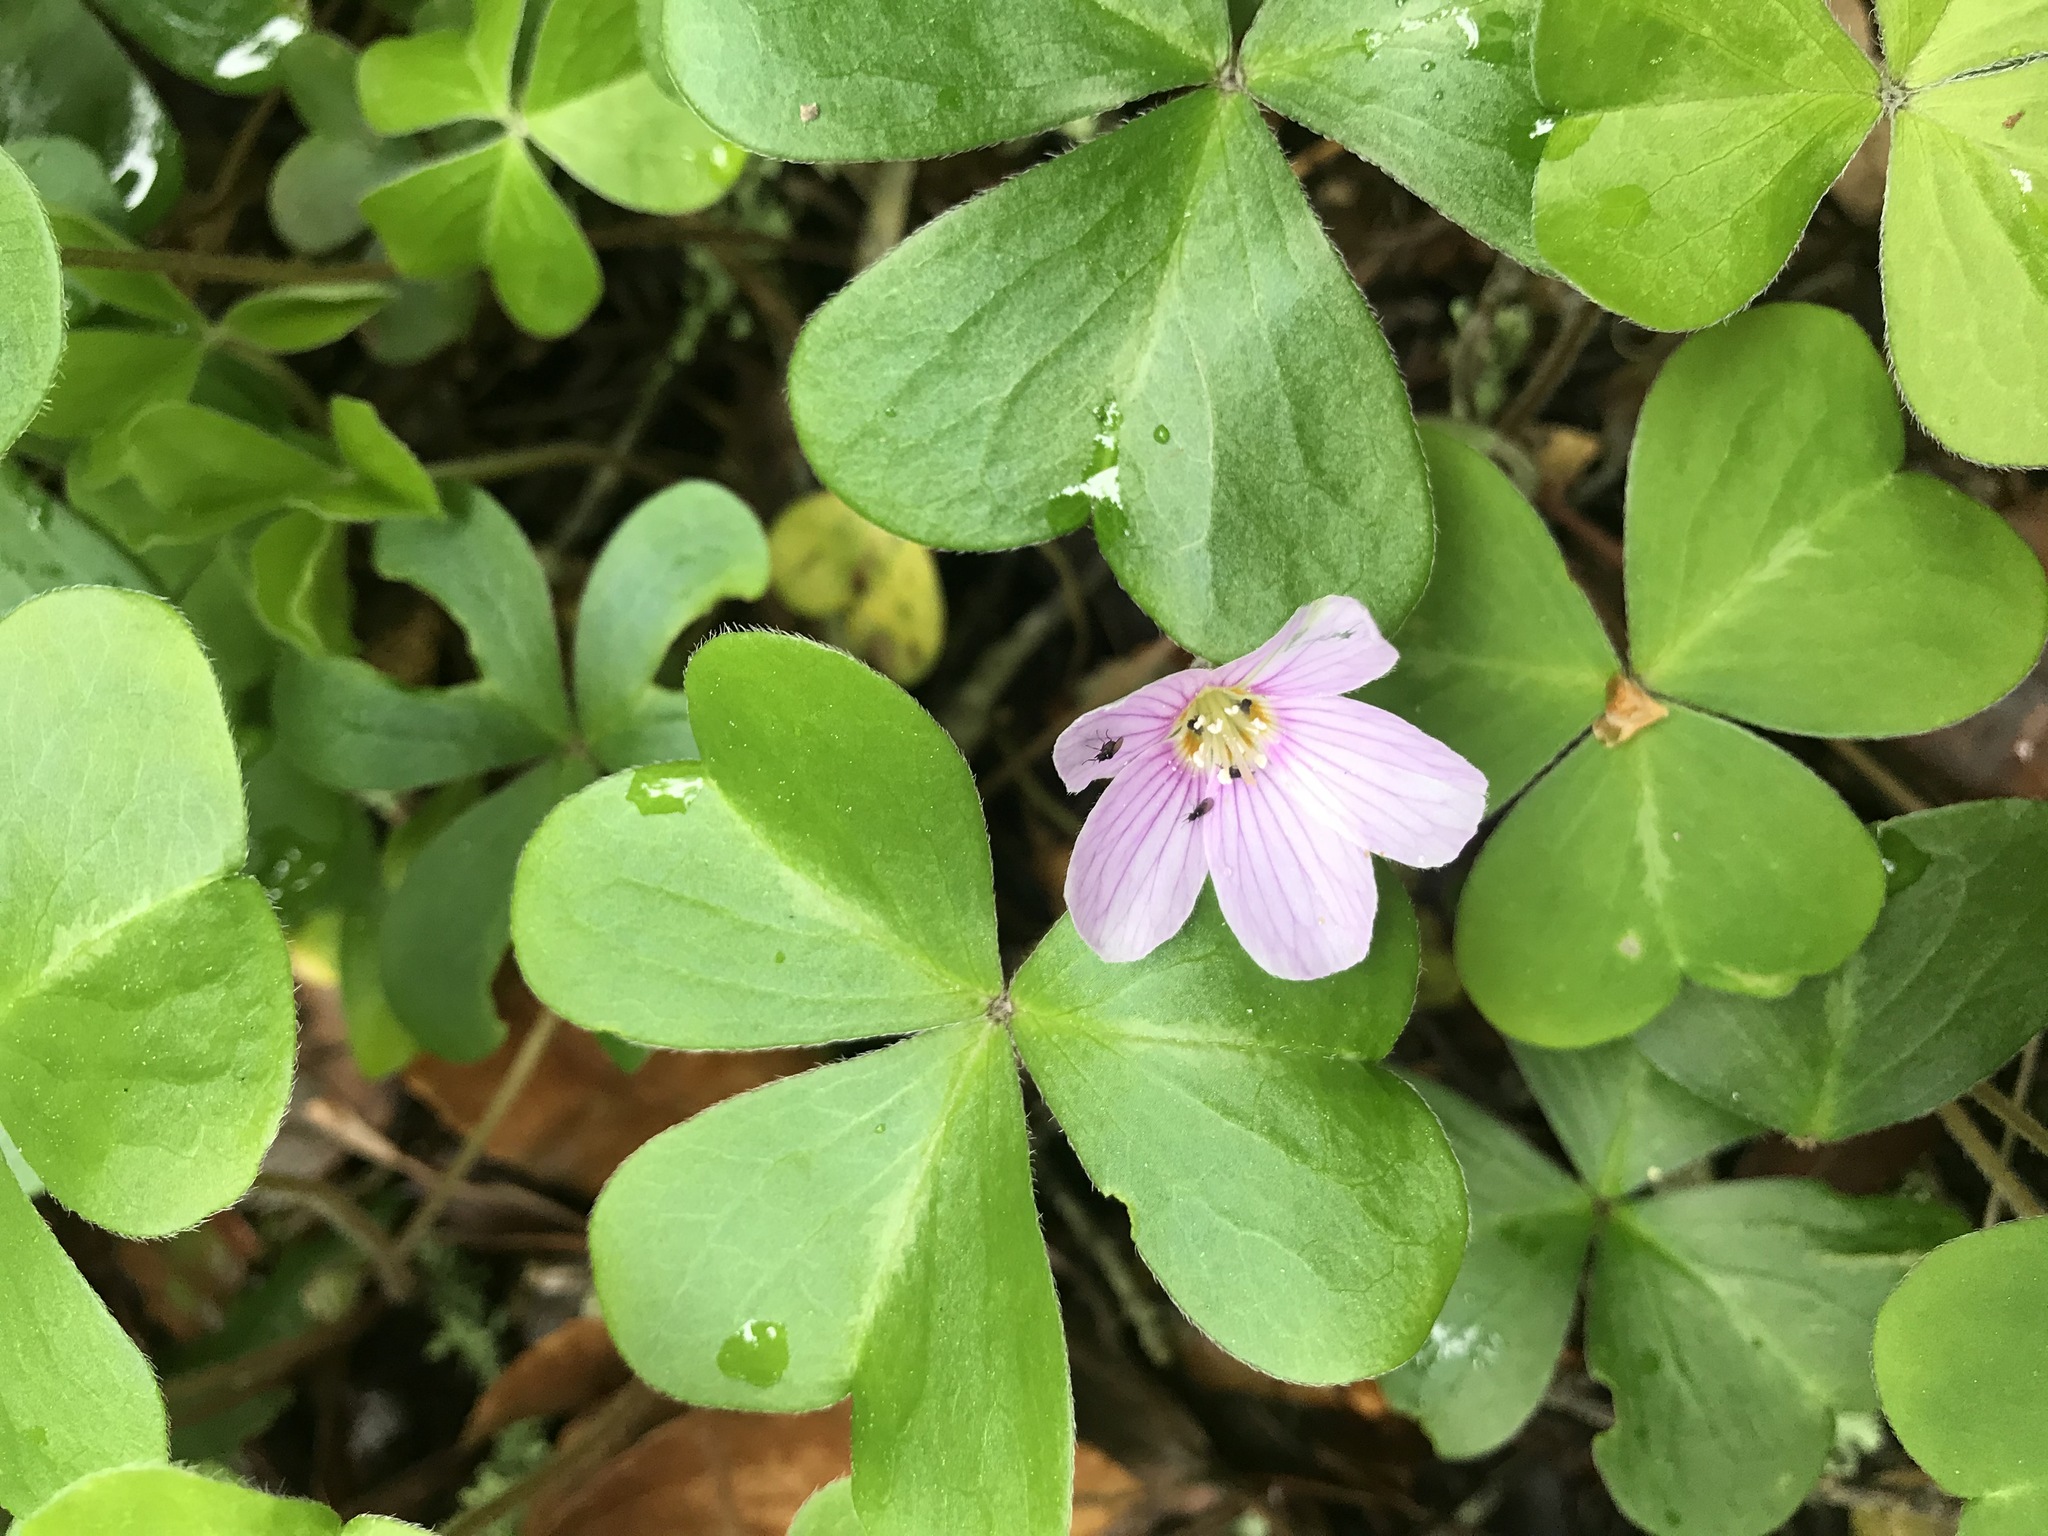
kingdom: Plantae
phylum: Tracheophyta
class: Magnoliopsida
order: Oxalidales
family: Oxalidaceae
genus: Oxalis
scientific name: Oxalis oregana
